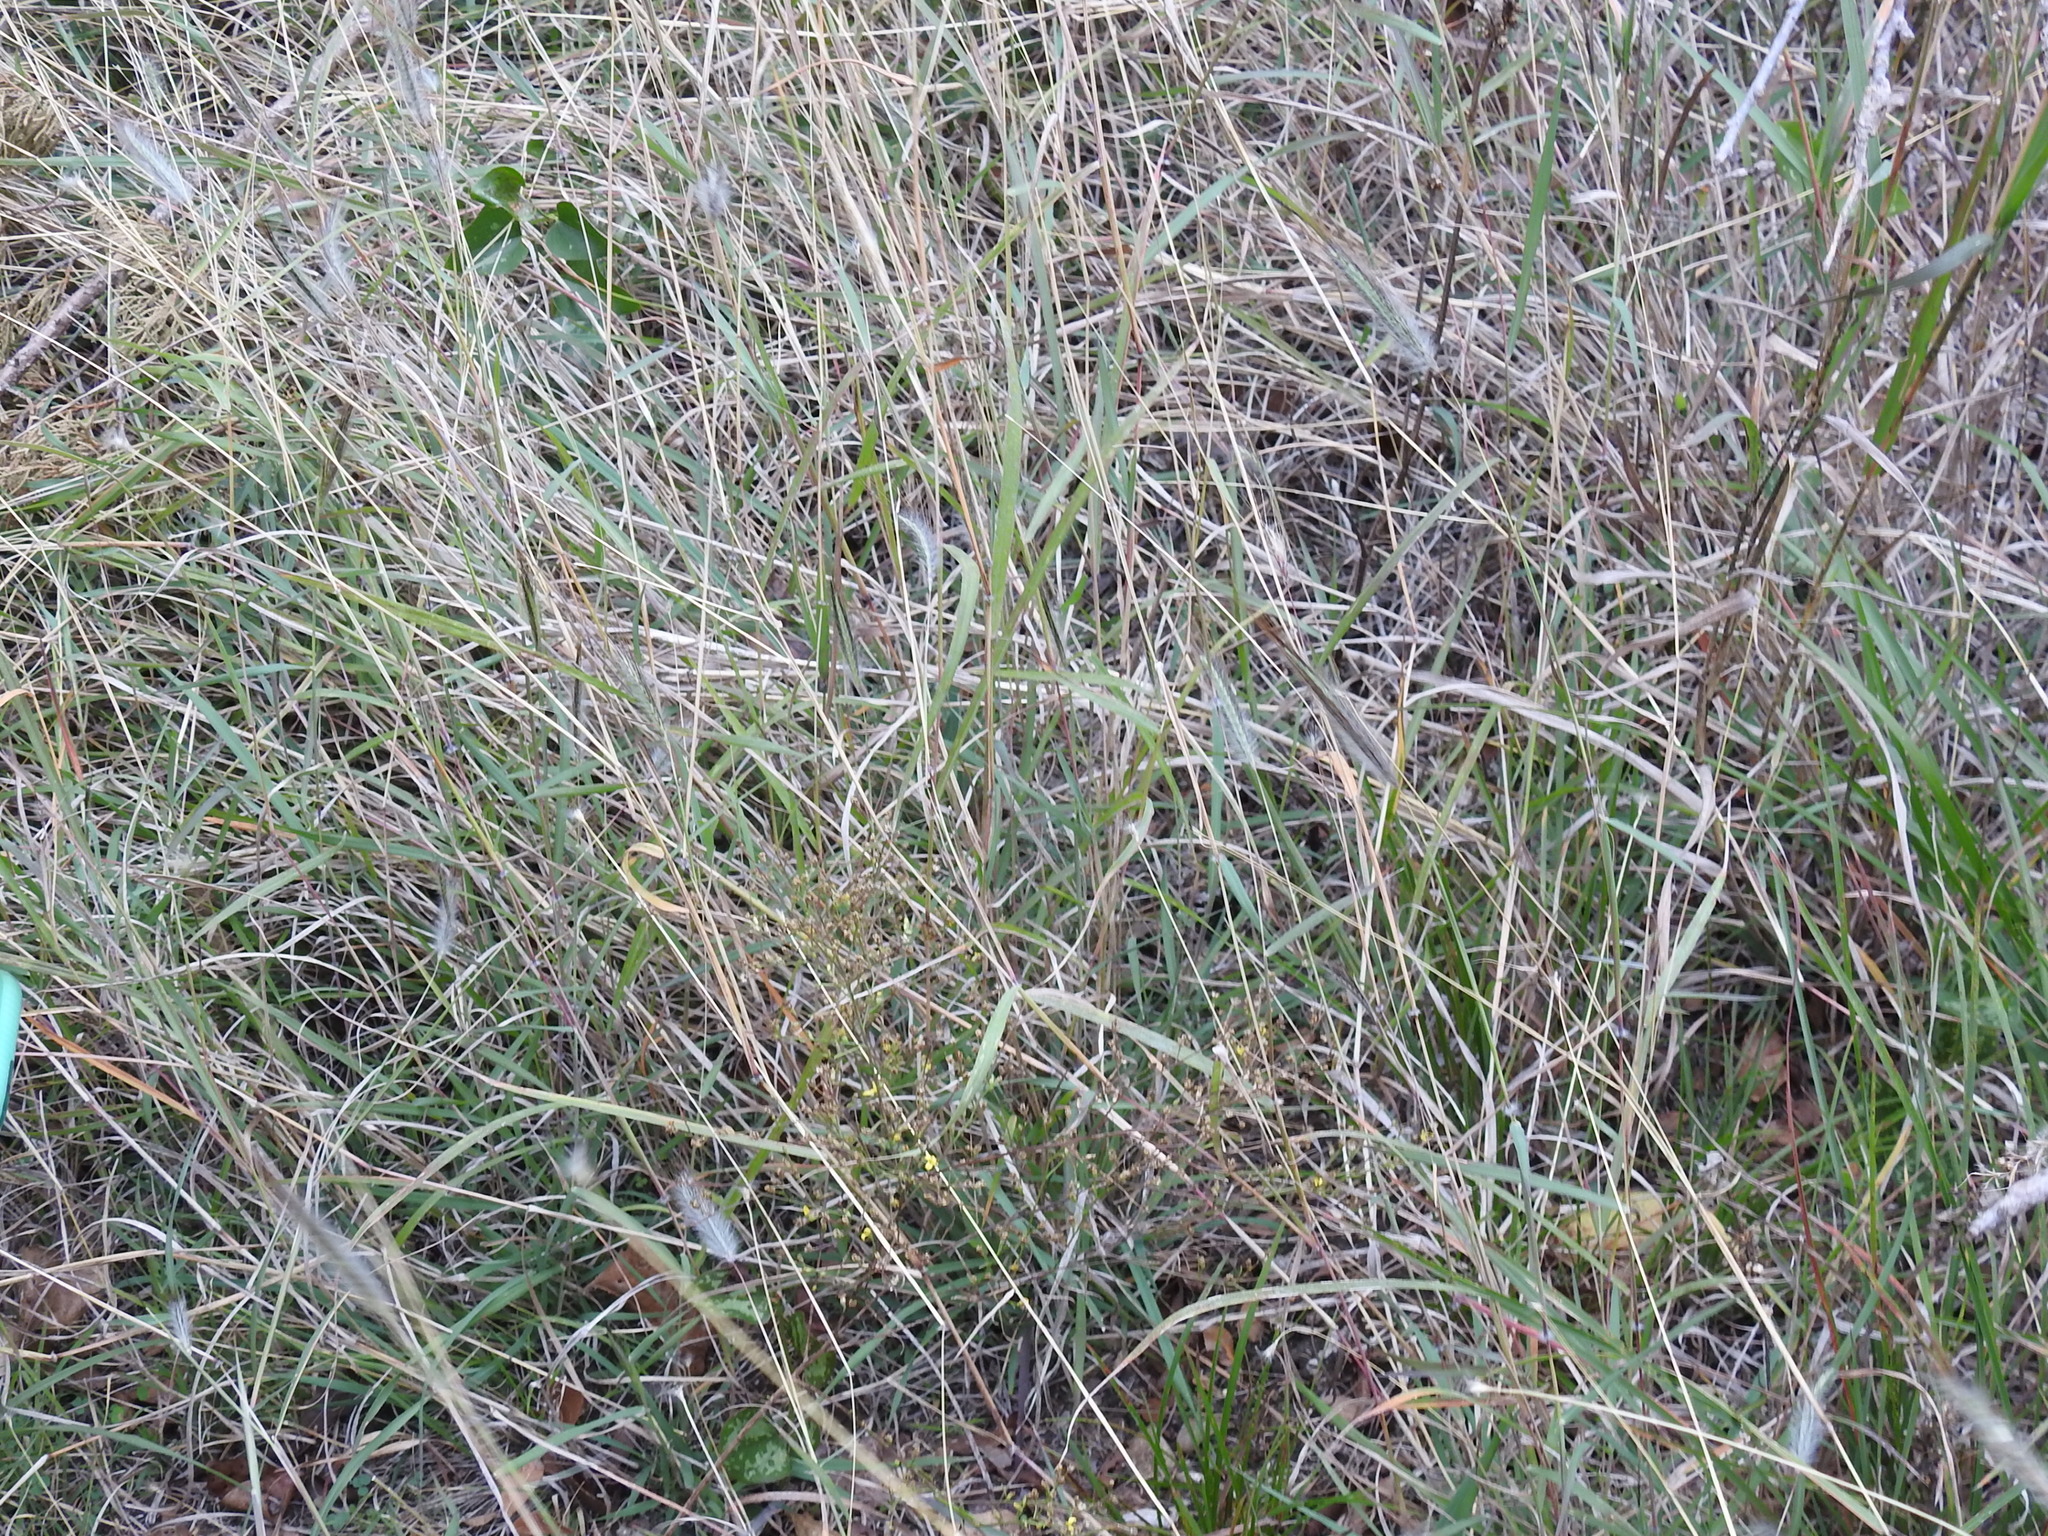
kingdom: Plantae
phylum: Tracheophyta
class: Liliopsida
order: Poales
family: Poaceae
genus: Dichanthium
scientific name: Dichanthium sericeum
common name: Silky bluestem
